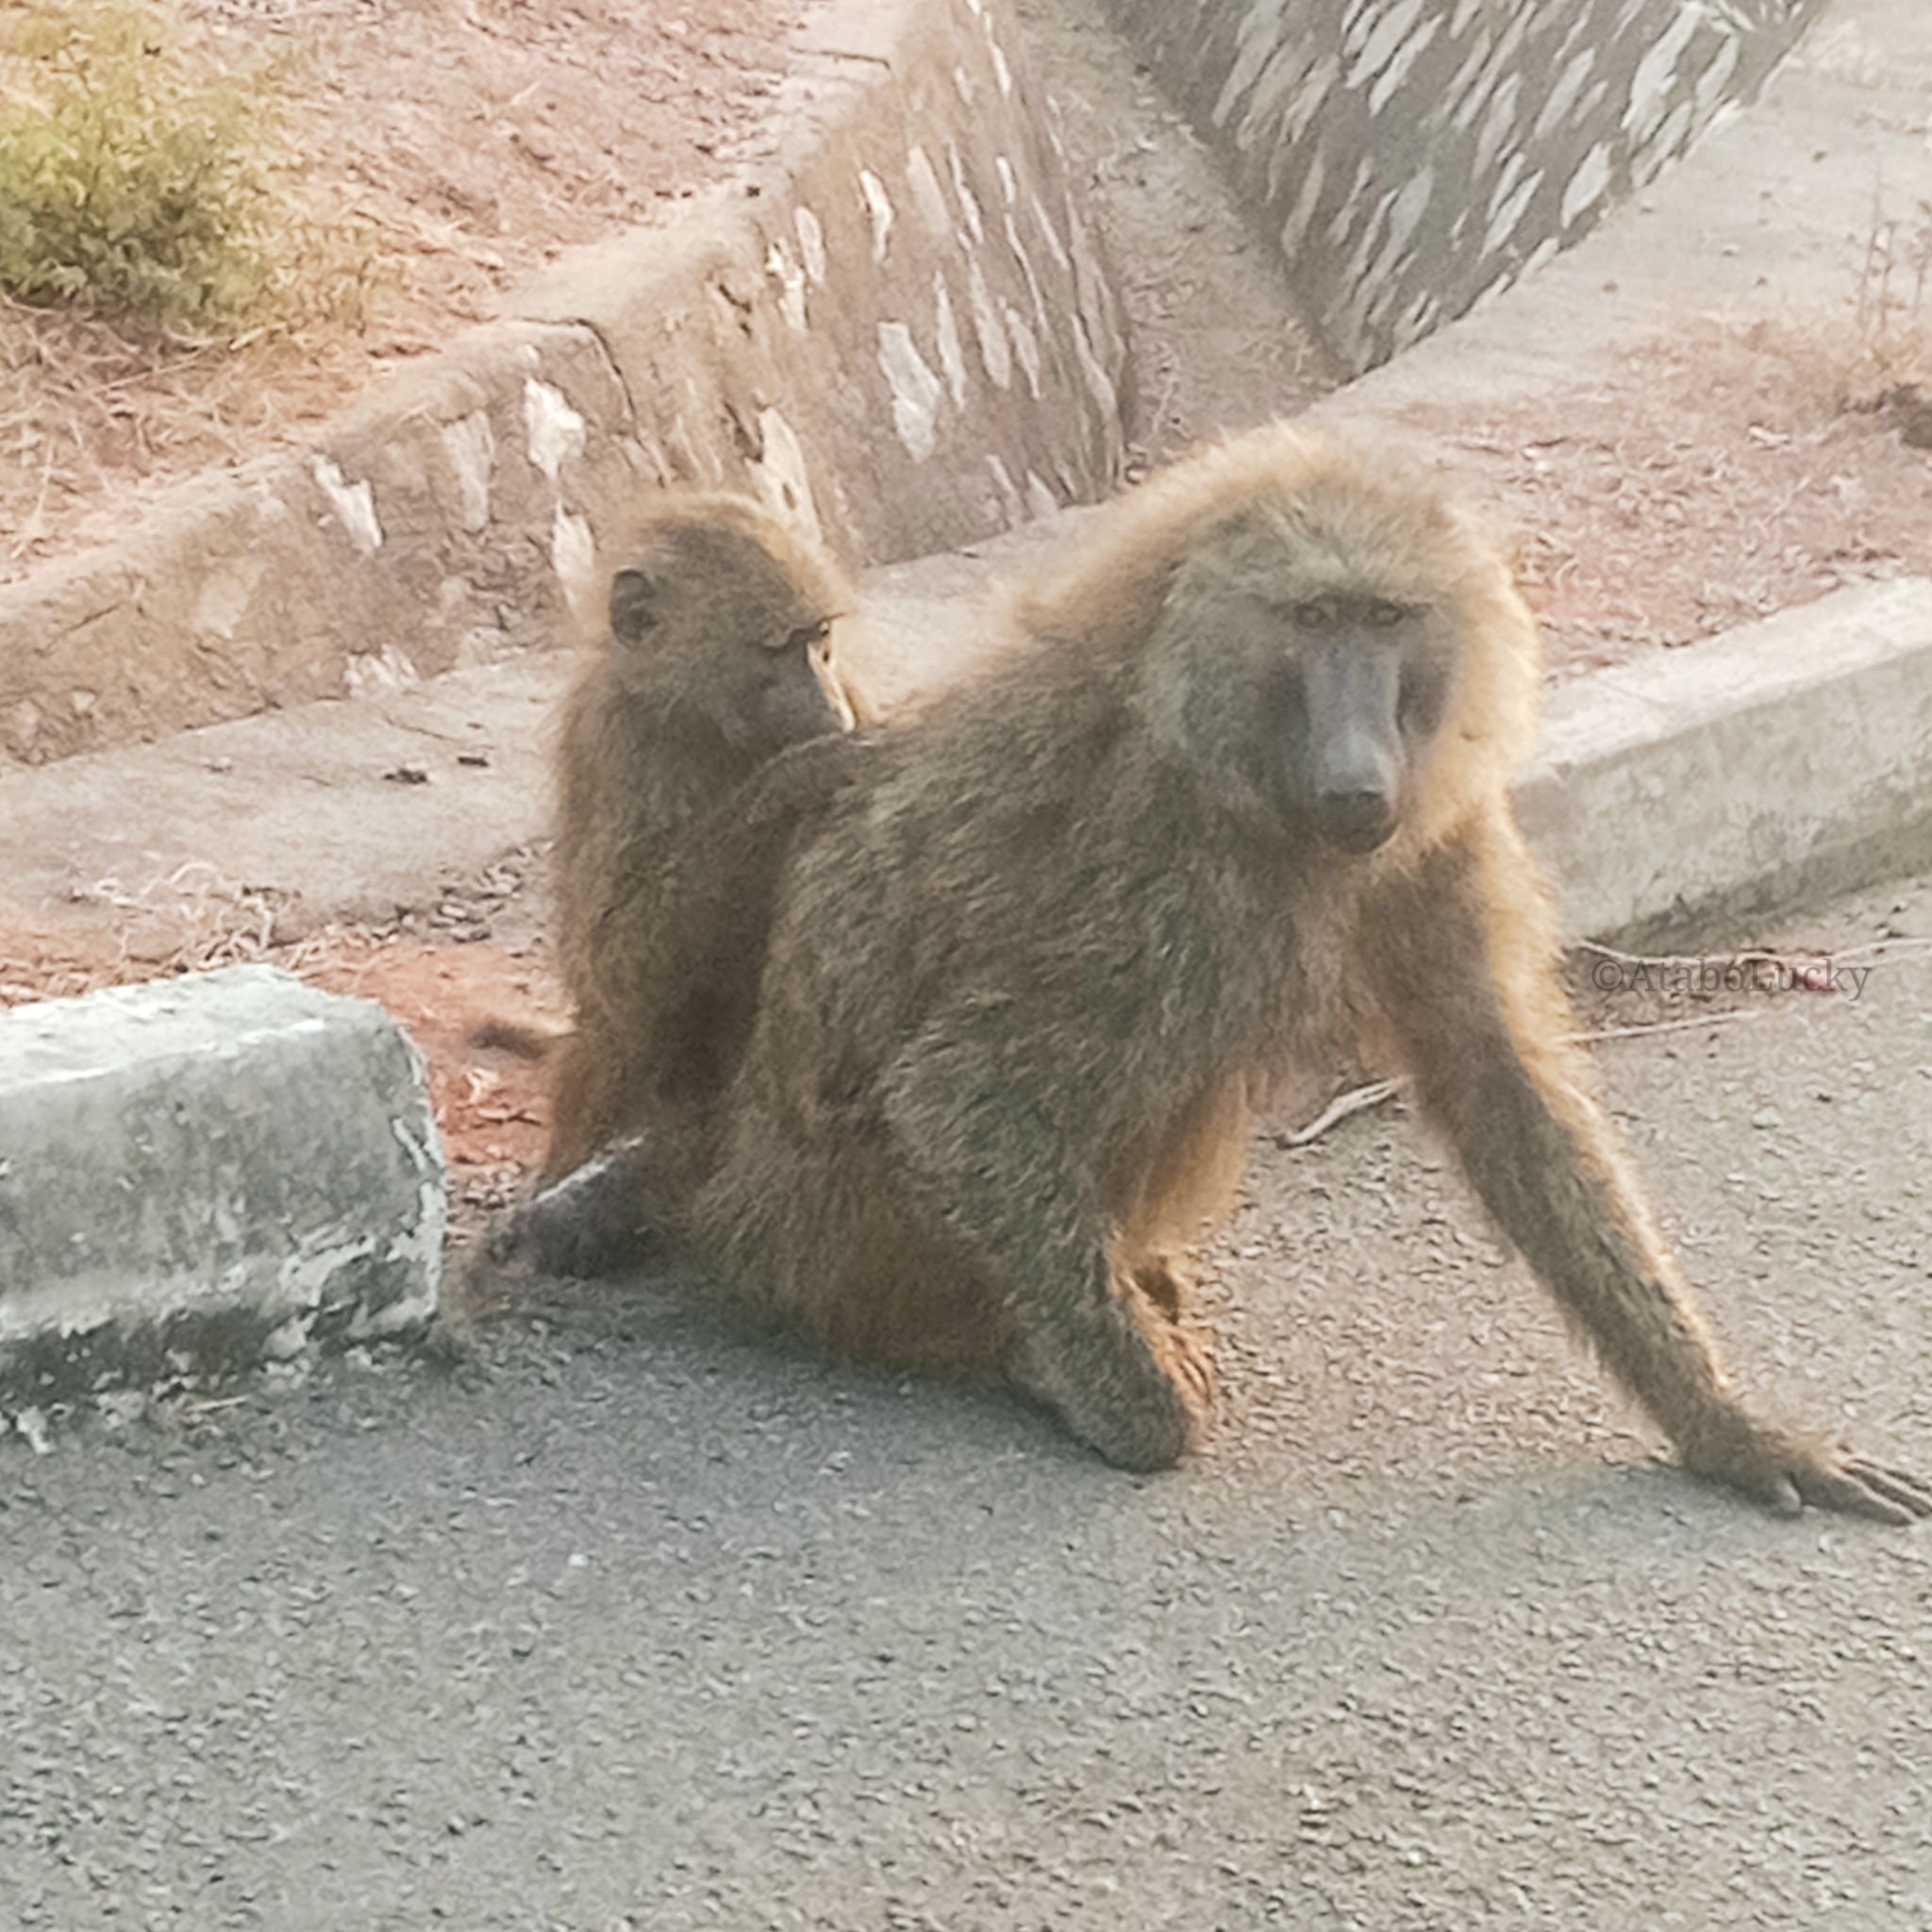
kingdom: Animalia
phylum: Chordata
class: Mammalia
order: Primates
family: Cercopithecidae
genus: Papio
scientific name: Papio anubis
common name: Olive baboon
